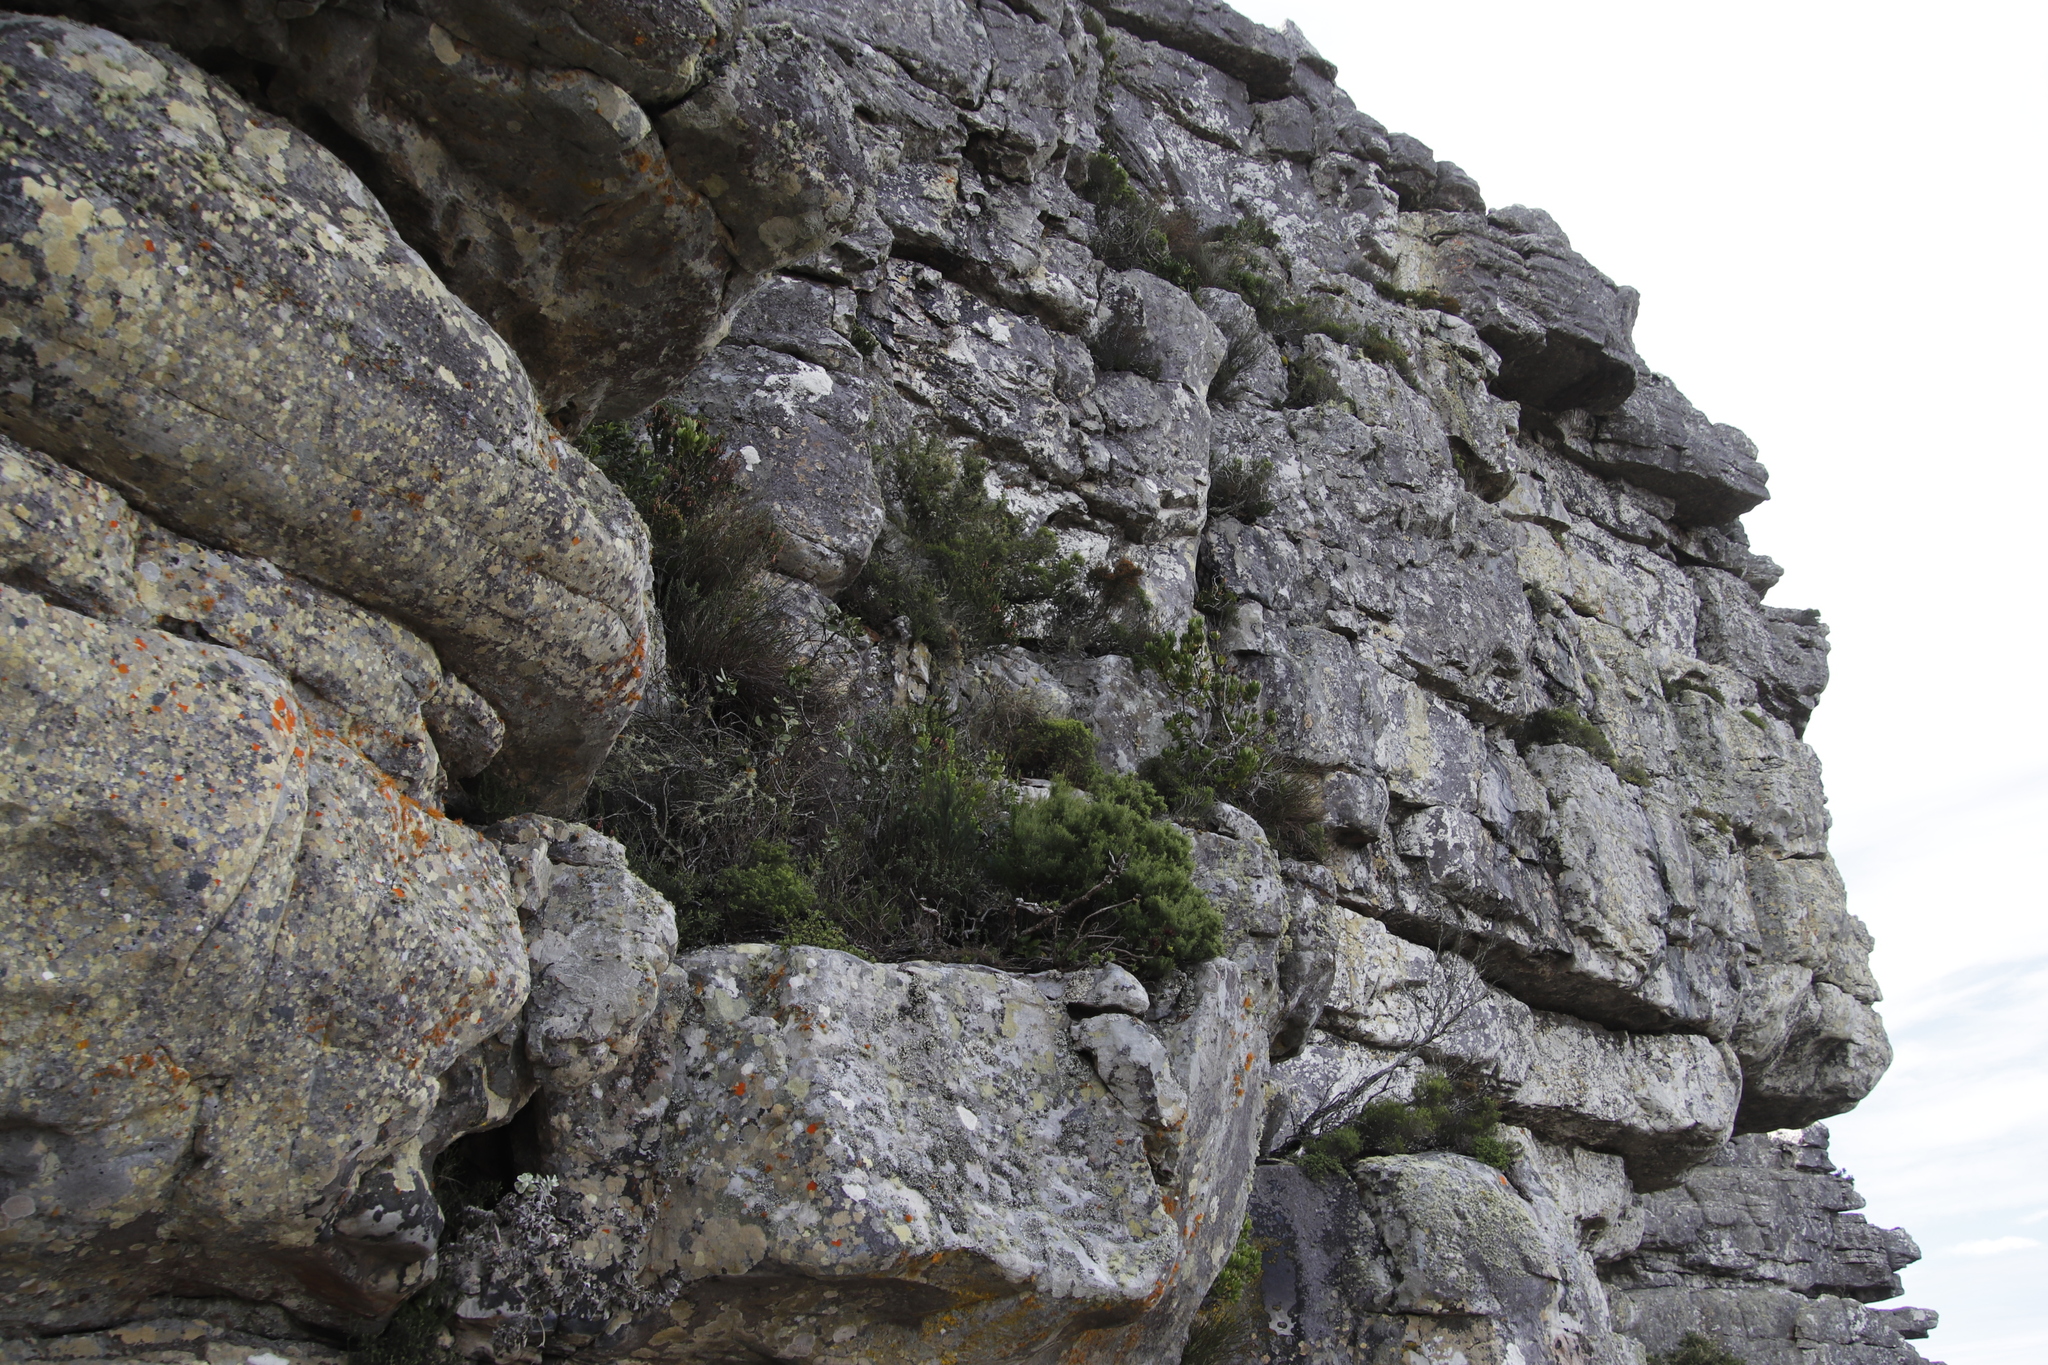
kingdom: Plantae
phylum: Tracheophyta
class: Magnoliopsida
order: Proteales
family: Proteaceae
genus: Leucadendron
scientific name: Leucadendron strobilinum
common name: Mountain rose
